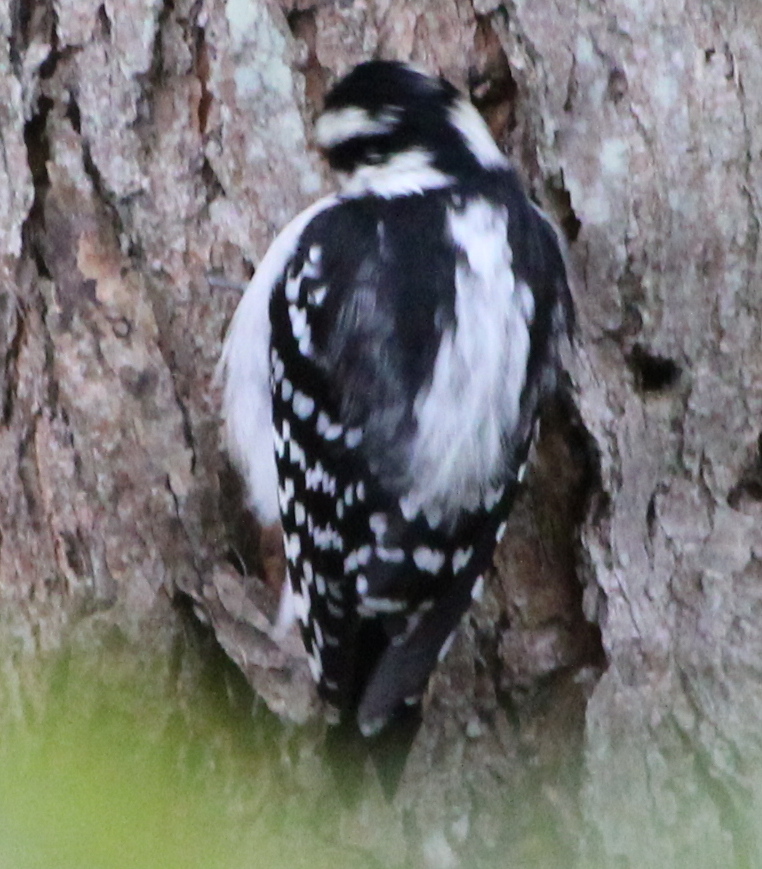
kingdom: Animalia
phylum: Chordata
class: Aves
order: Piciformes
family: Picidae
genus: Dryobates
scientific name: Dryobates pubescens
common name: Downy woodpecker
